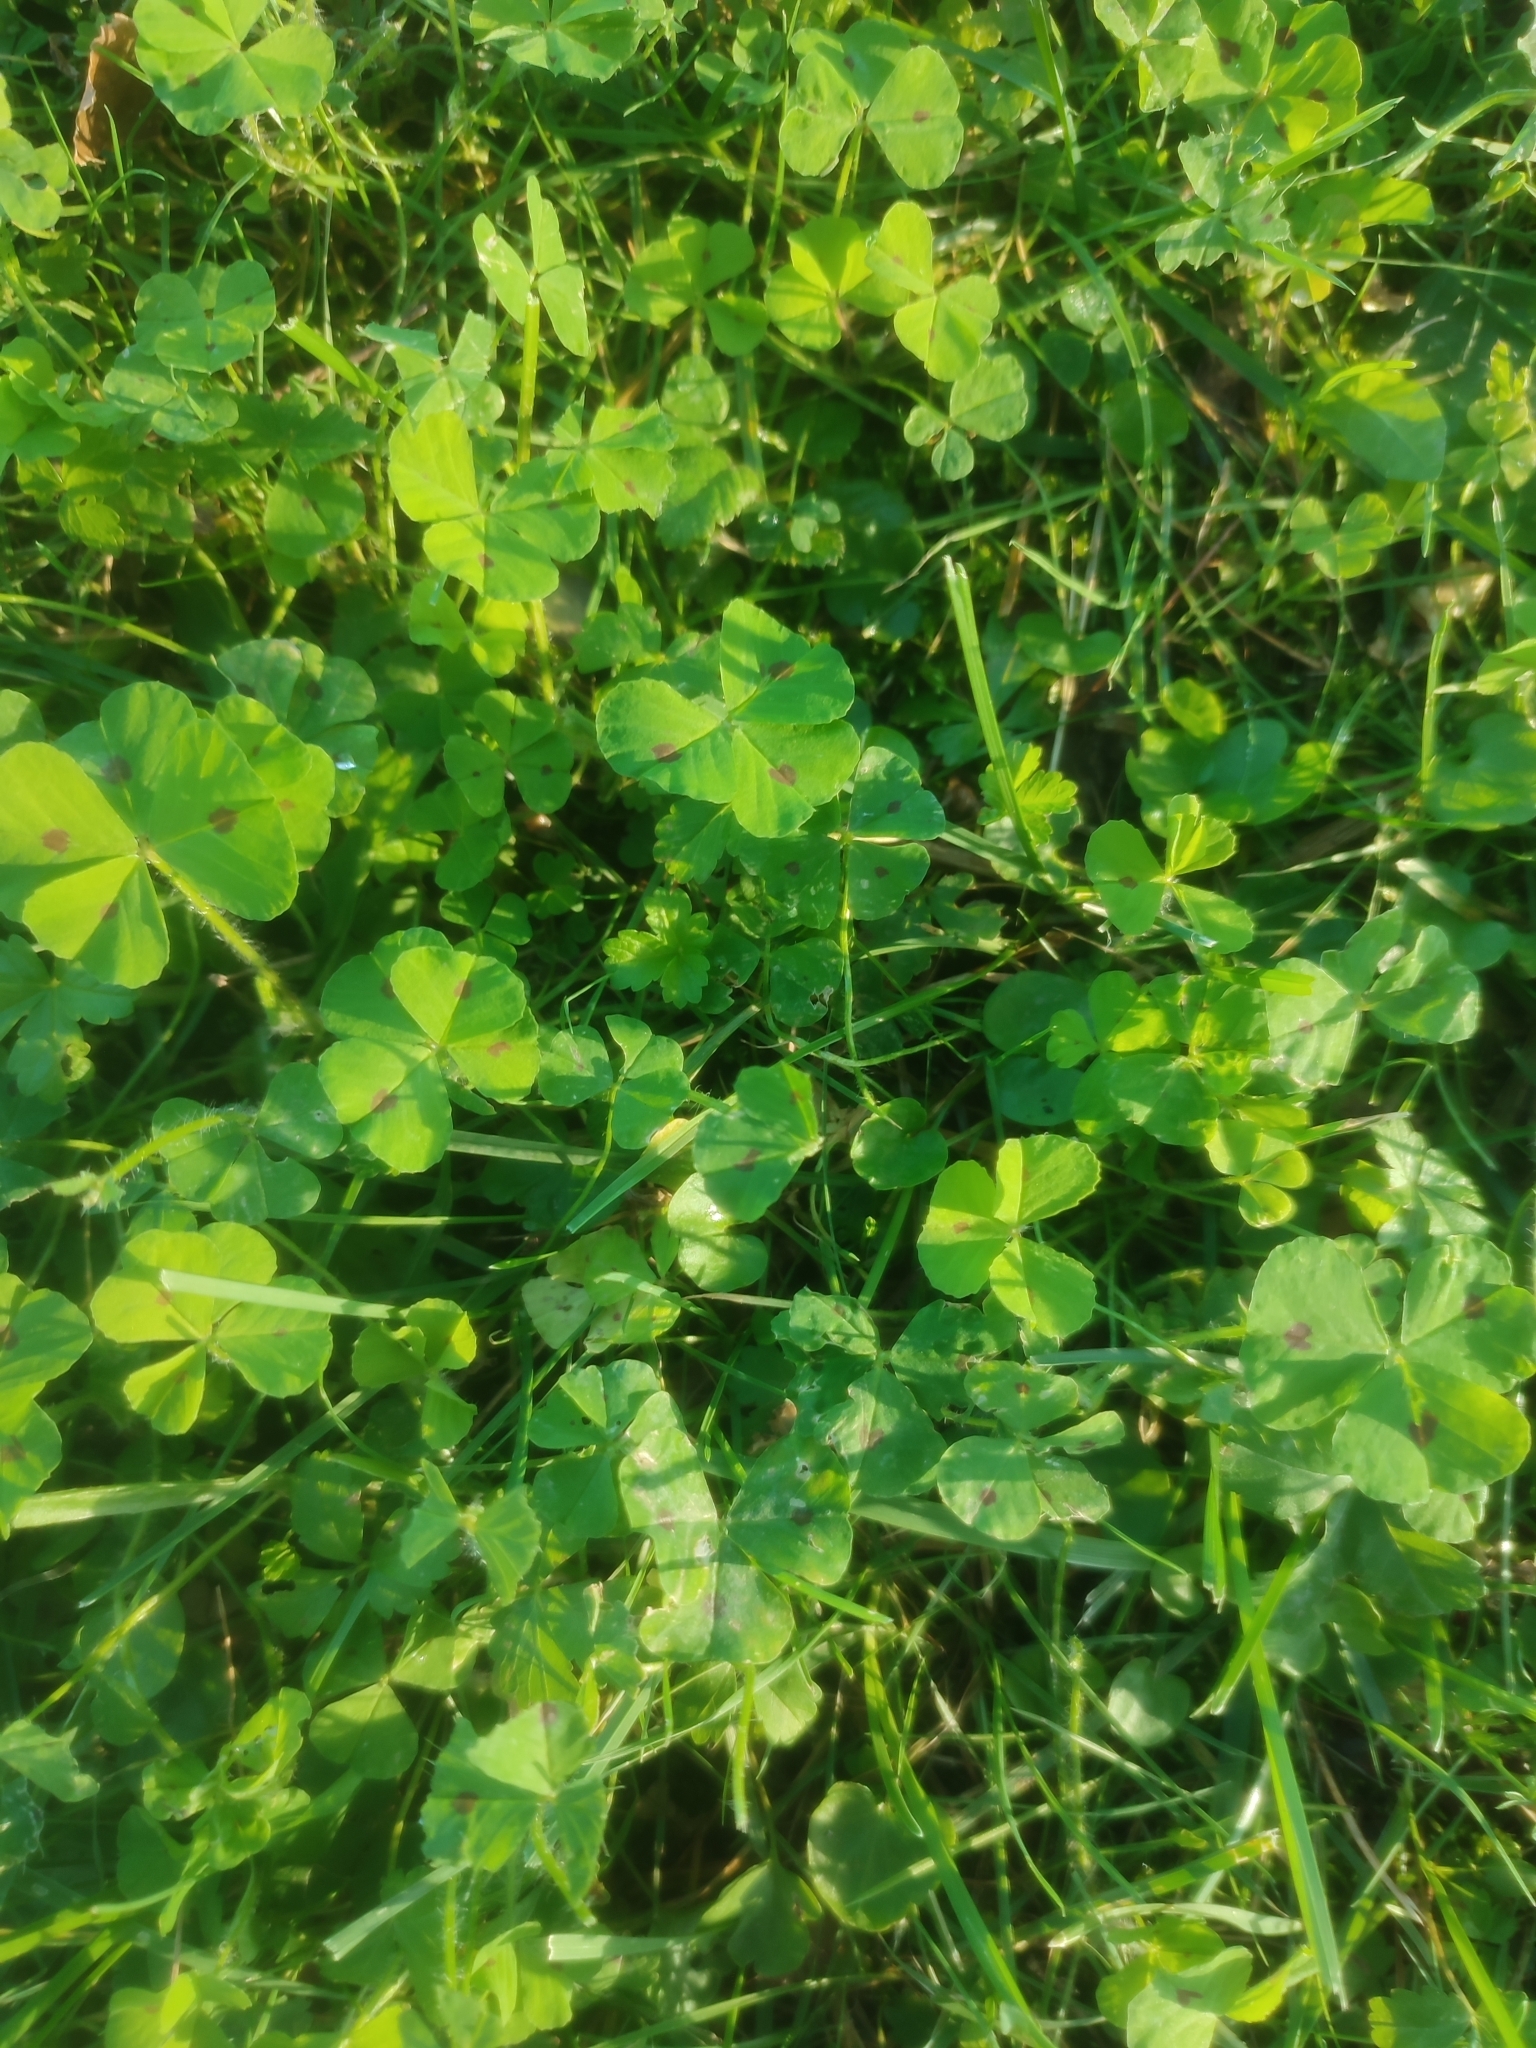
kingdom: Plantae
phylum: Tracheophyta
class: Magnoliopsida
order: Fabales
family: Fabaceae
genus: Medicago
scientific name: Medicago arabica
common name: Spotted medick
